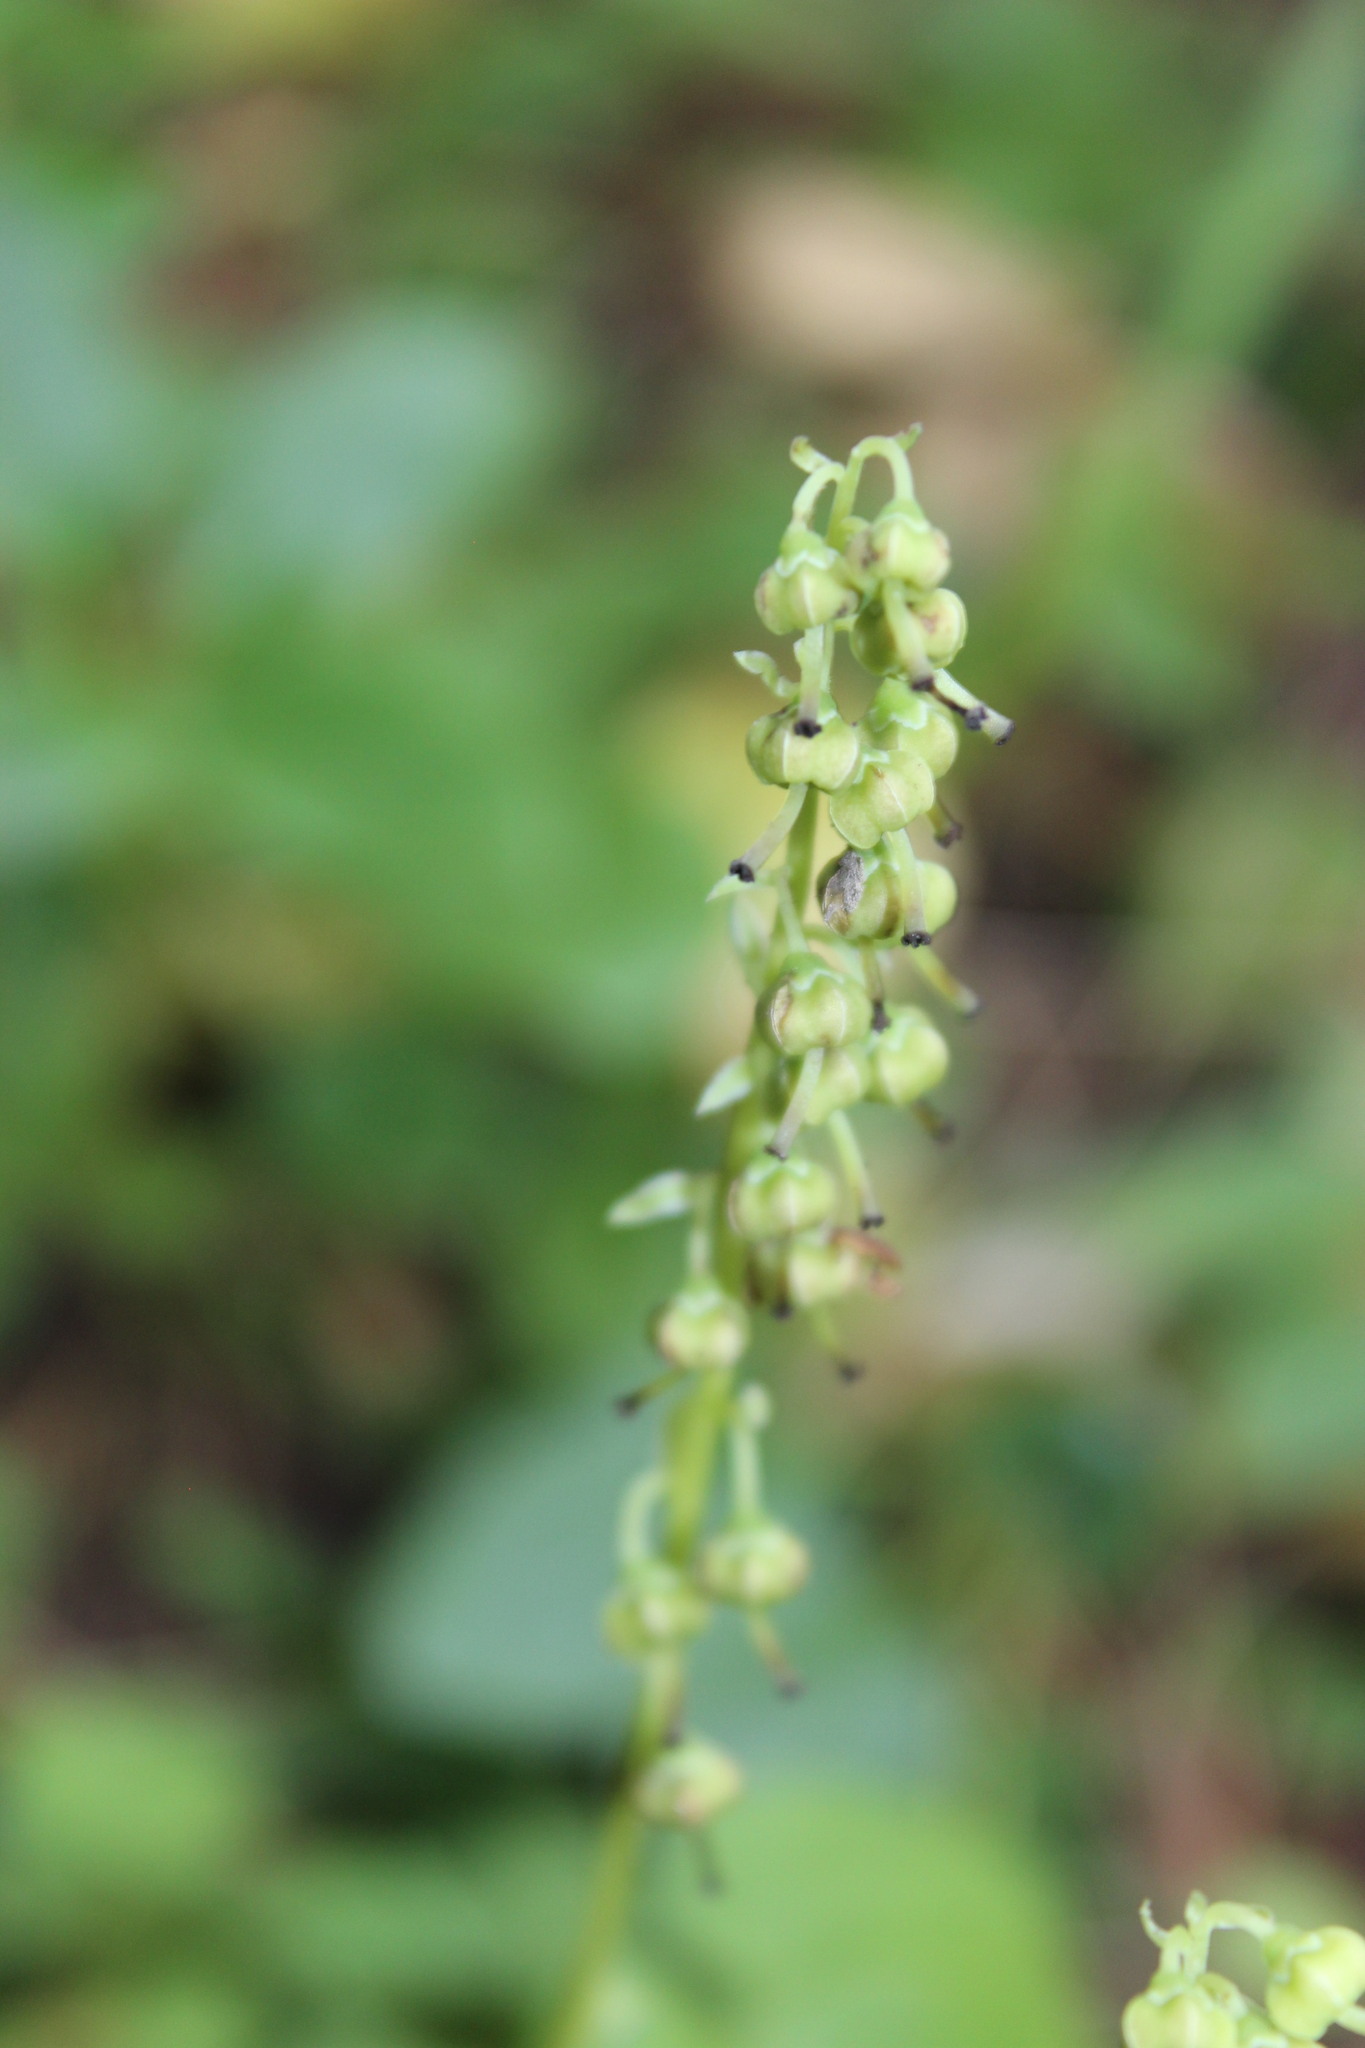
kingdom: Plantae
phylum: Tracheophyta
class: Magnoliopsida
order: Ericales
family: Ericaceae
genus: Orthilia
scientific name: Orthilia secunda
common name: One-sided orthilia
